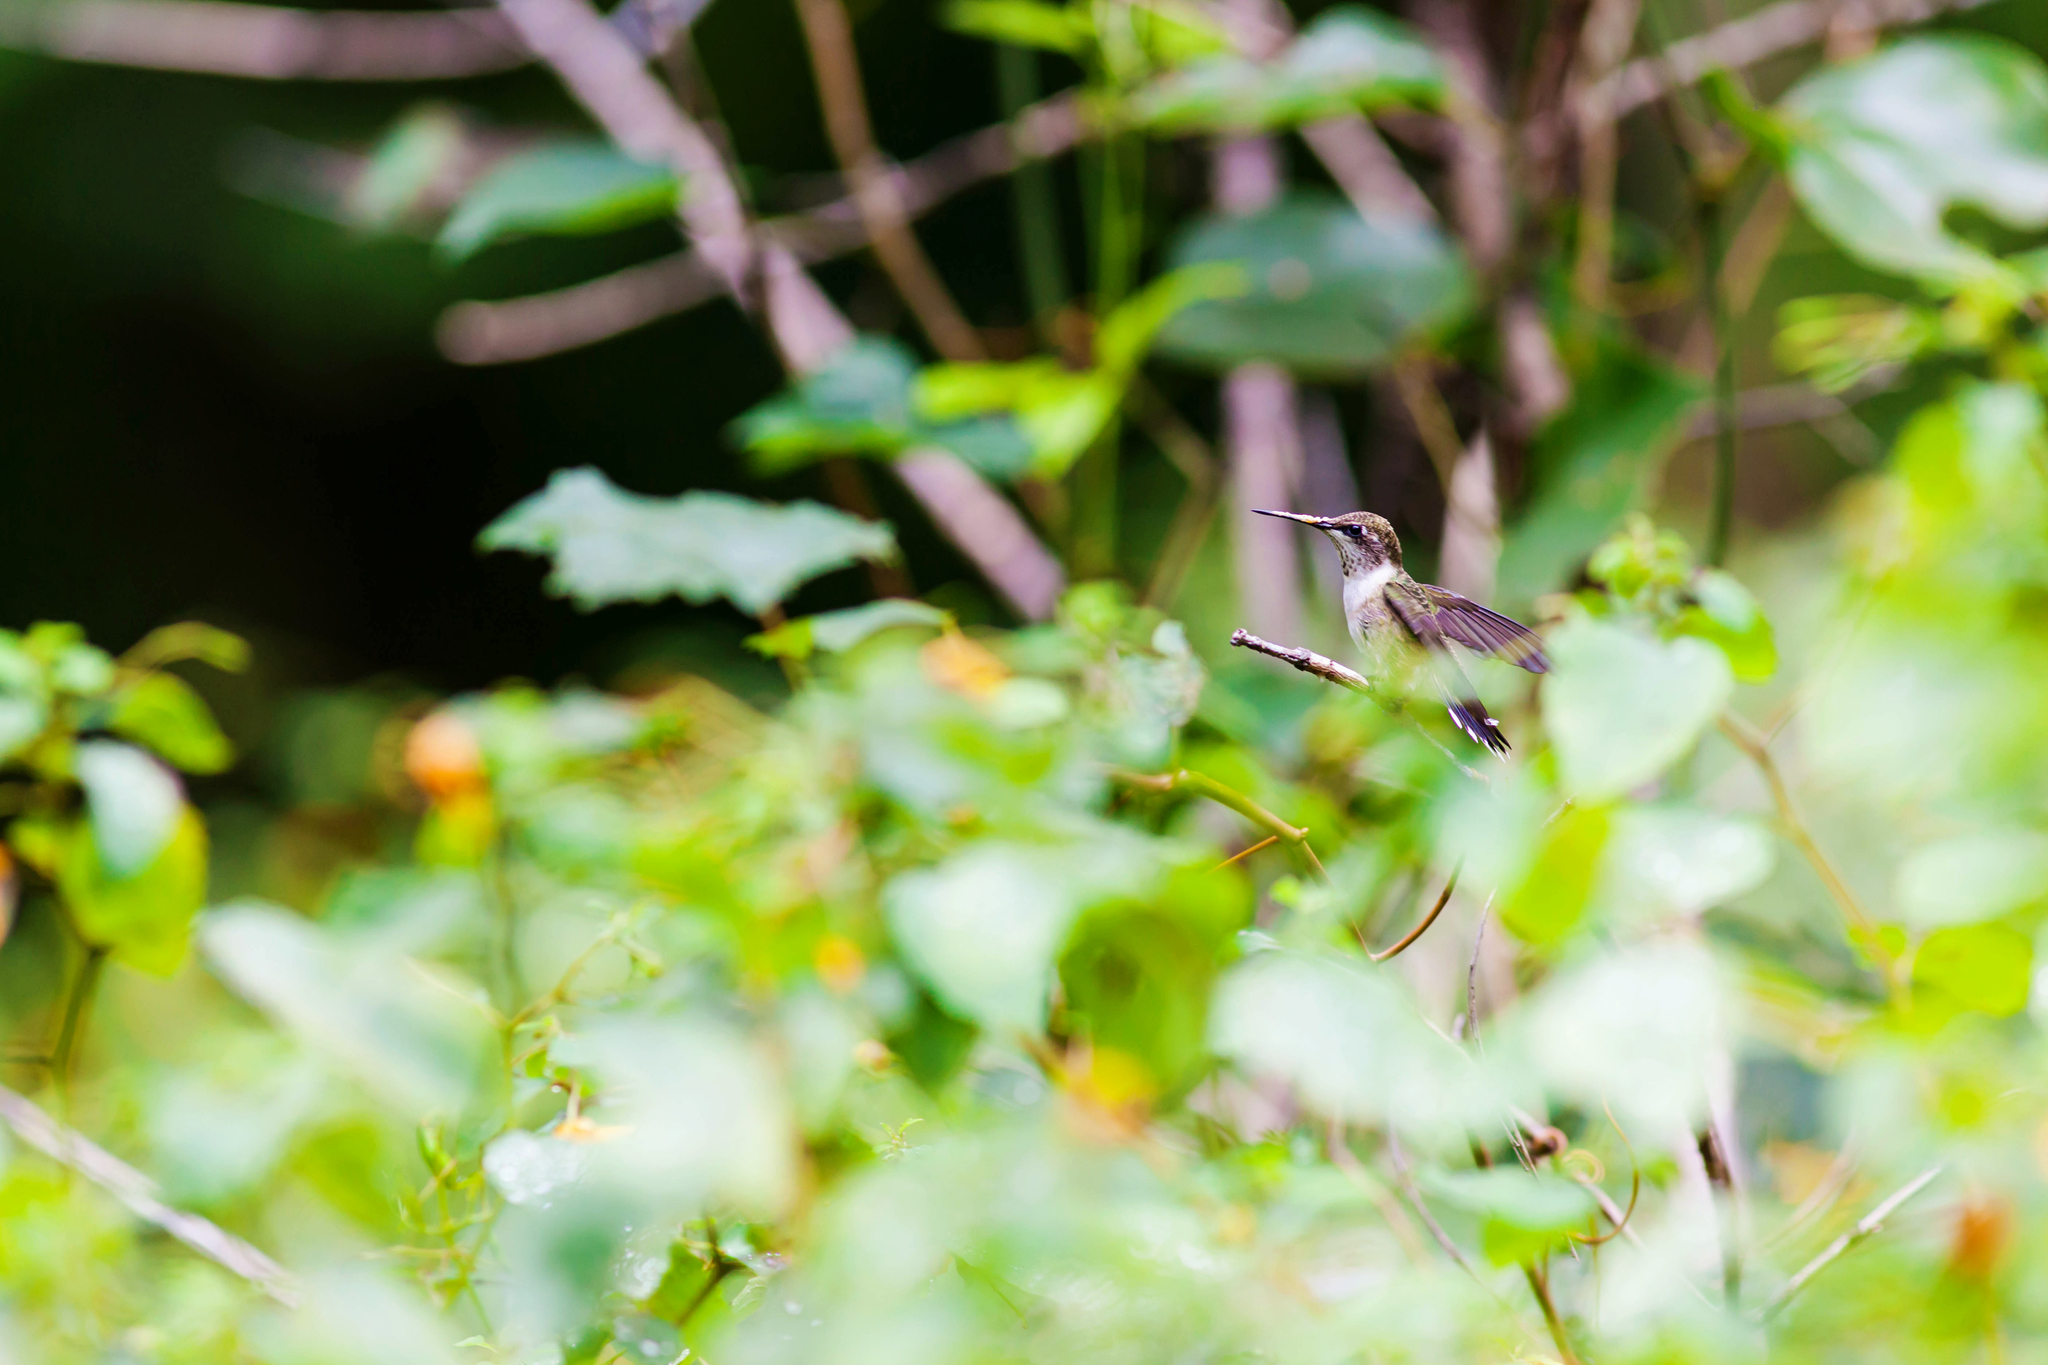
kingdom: Animalia
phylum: Chordata
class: Aves
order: Apodiformes
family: Trochilidae
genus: Archilochus
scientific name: Archilochus colubris
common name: Ruby-throated hummingbird
